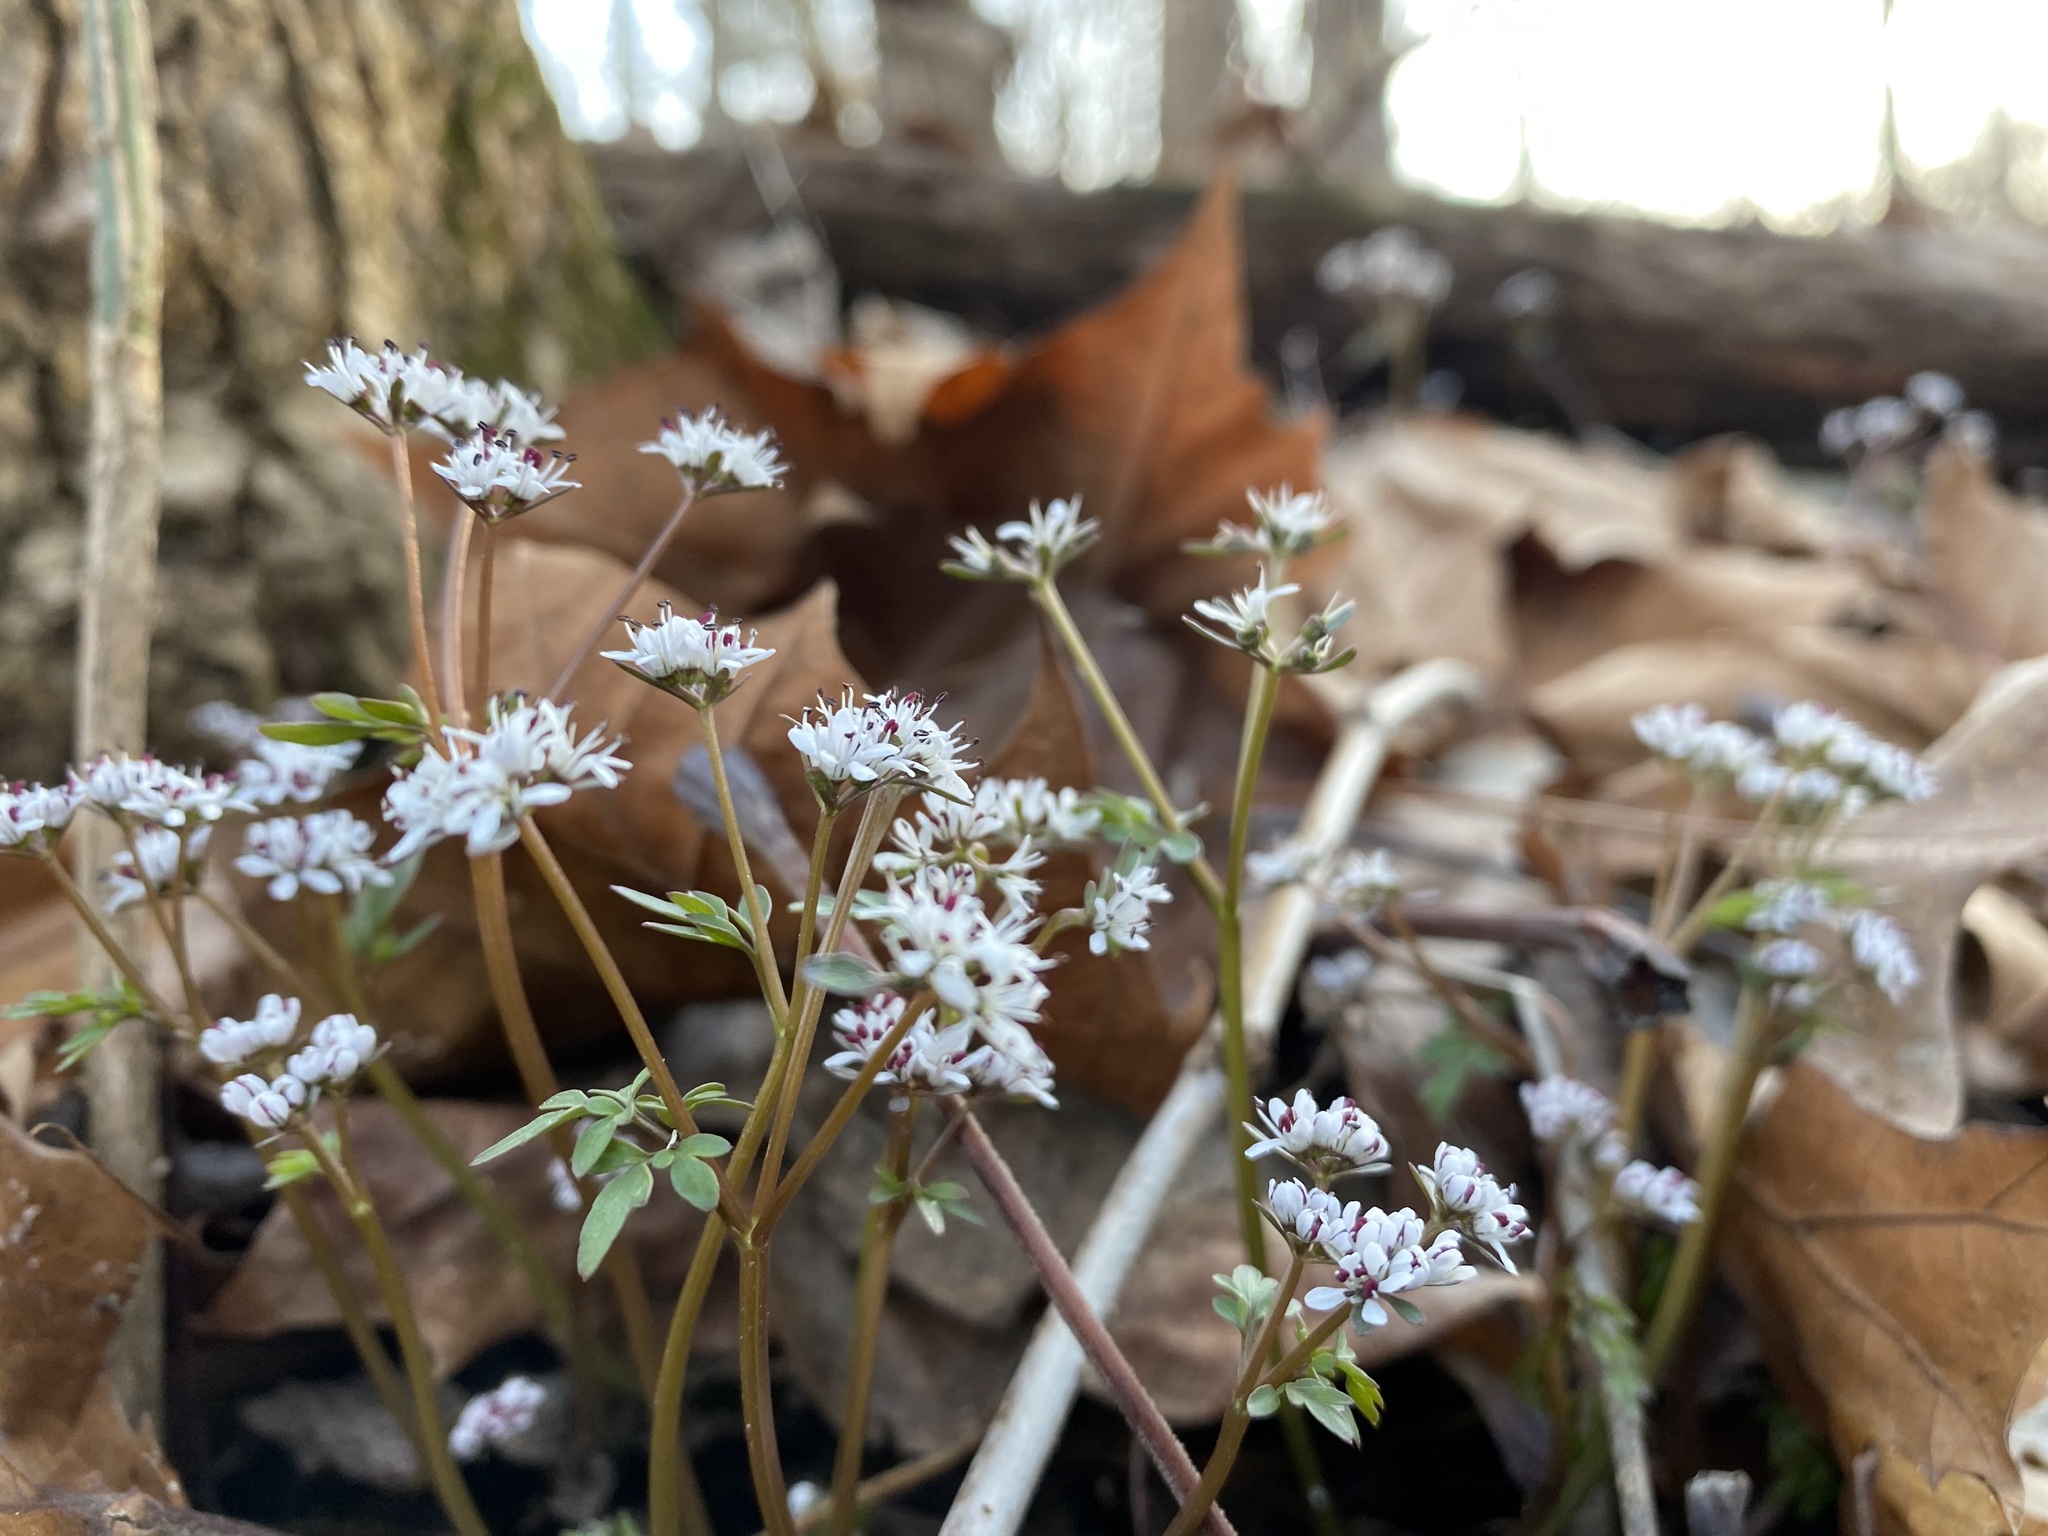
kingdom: Plantae
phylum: Tracheophyta
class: Magnoliopsida
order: Apiales
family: Apiaceae
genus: Erigenia
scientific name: Erigenia bulbosa
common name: Pepper-and-salt
